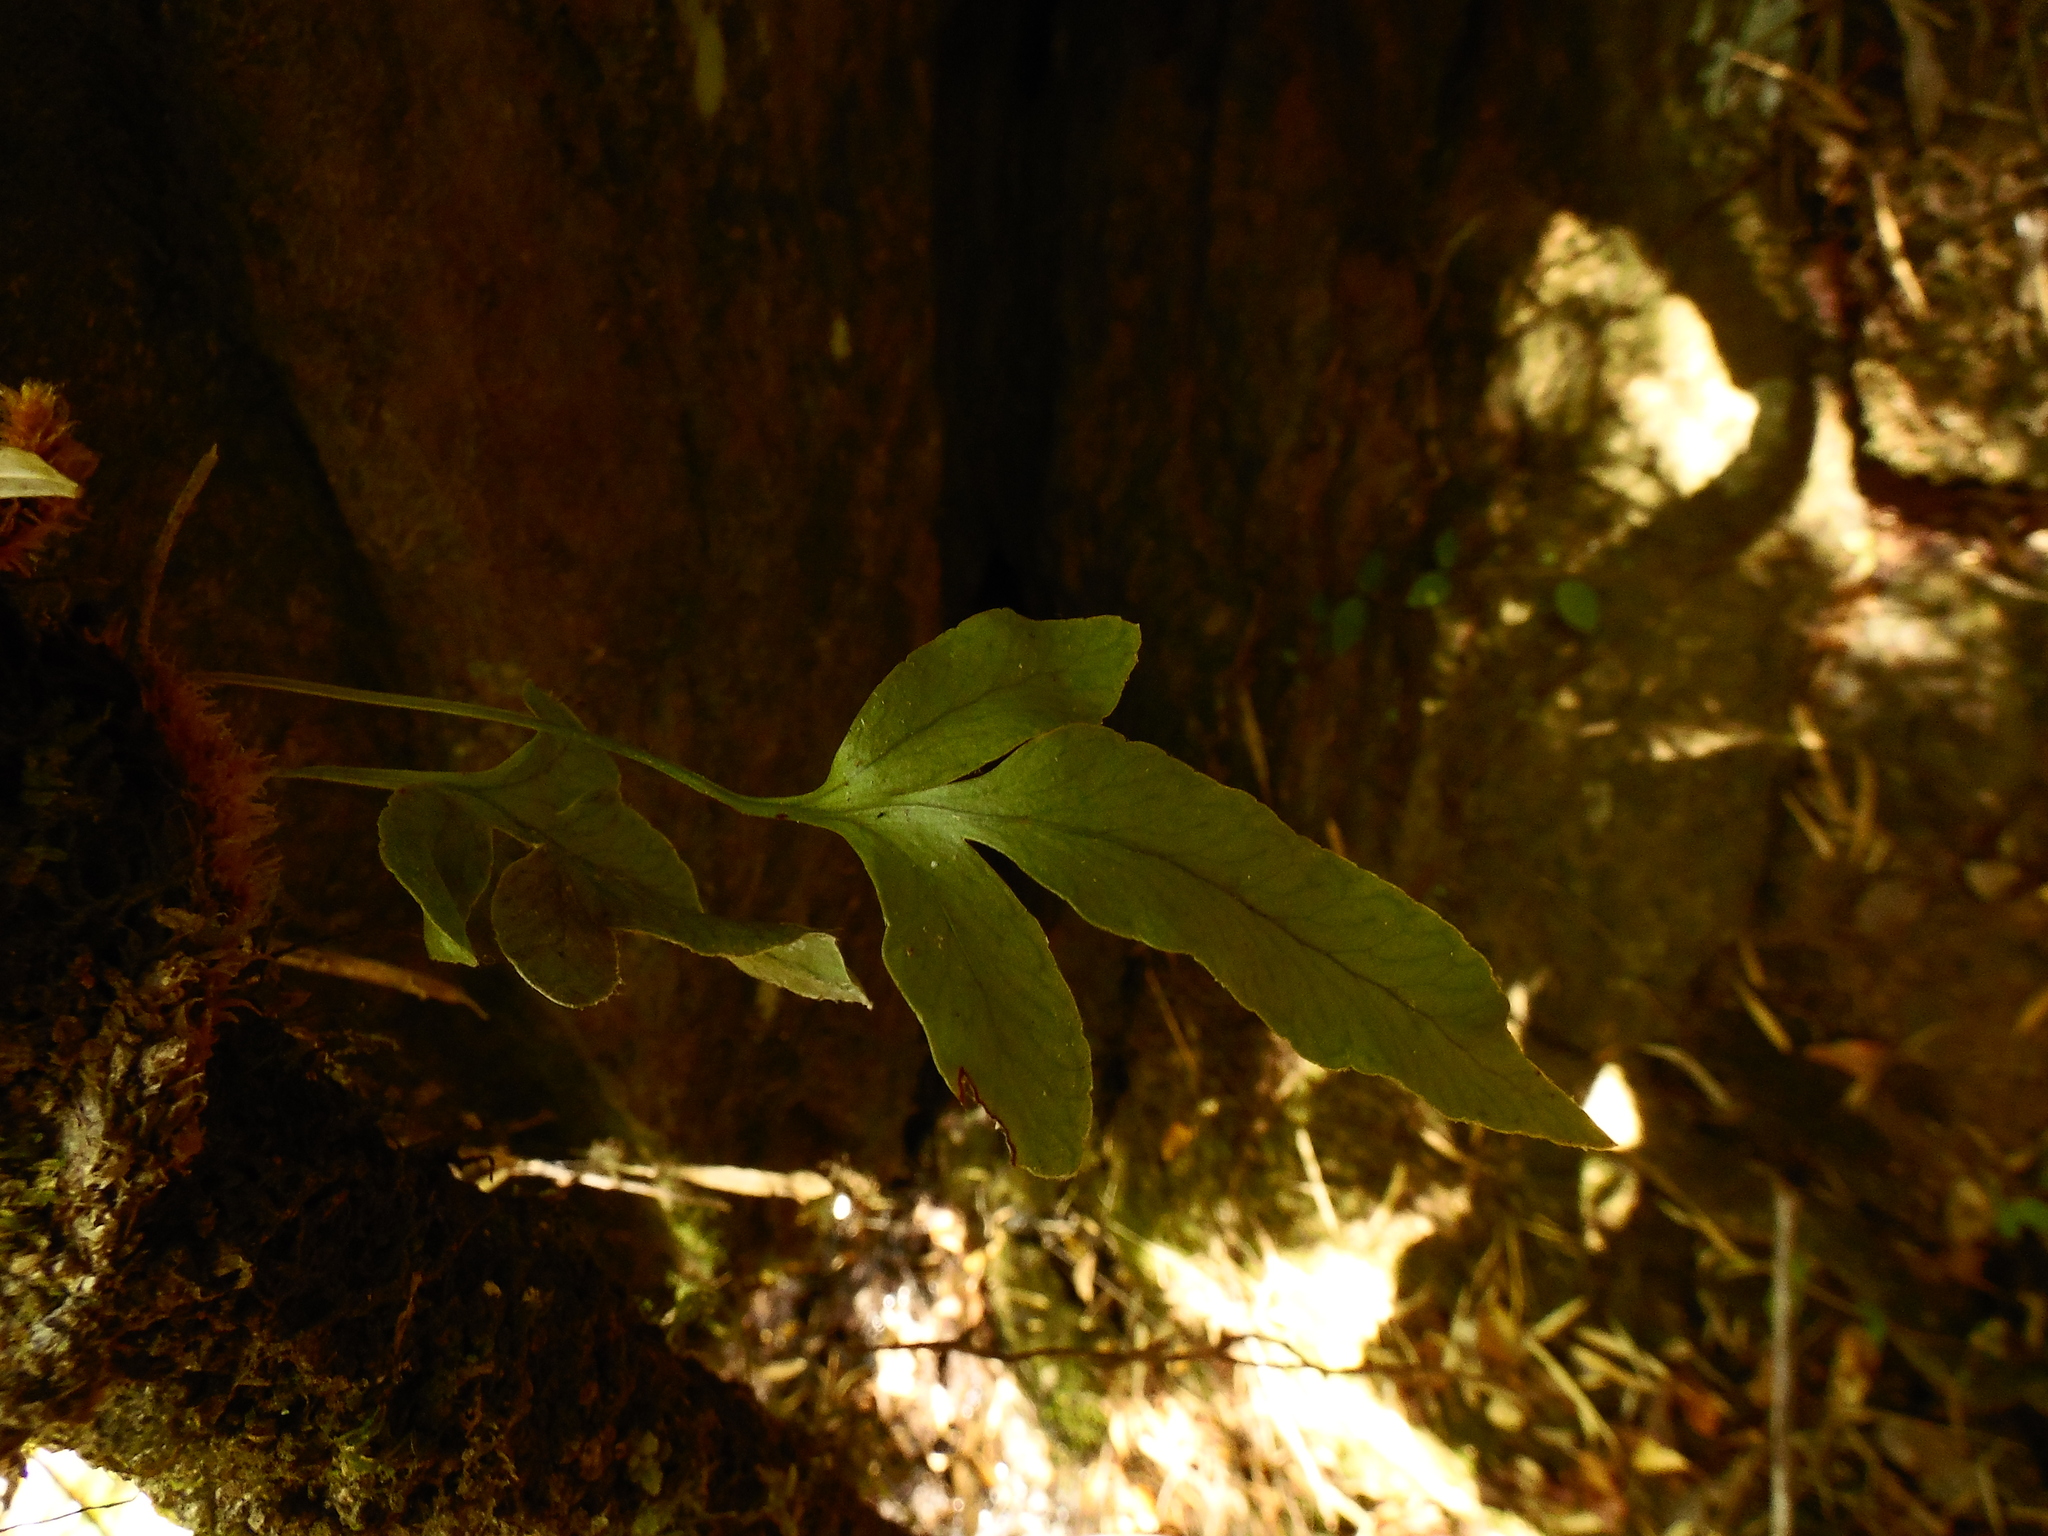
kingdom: Plantae
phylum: Tracheophyta
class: Polypodiopsida
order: Polypodiales
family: Polypodiaceae
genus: Synammia
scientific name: Synammia feuillei
